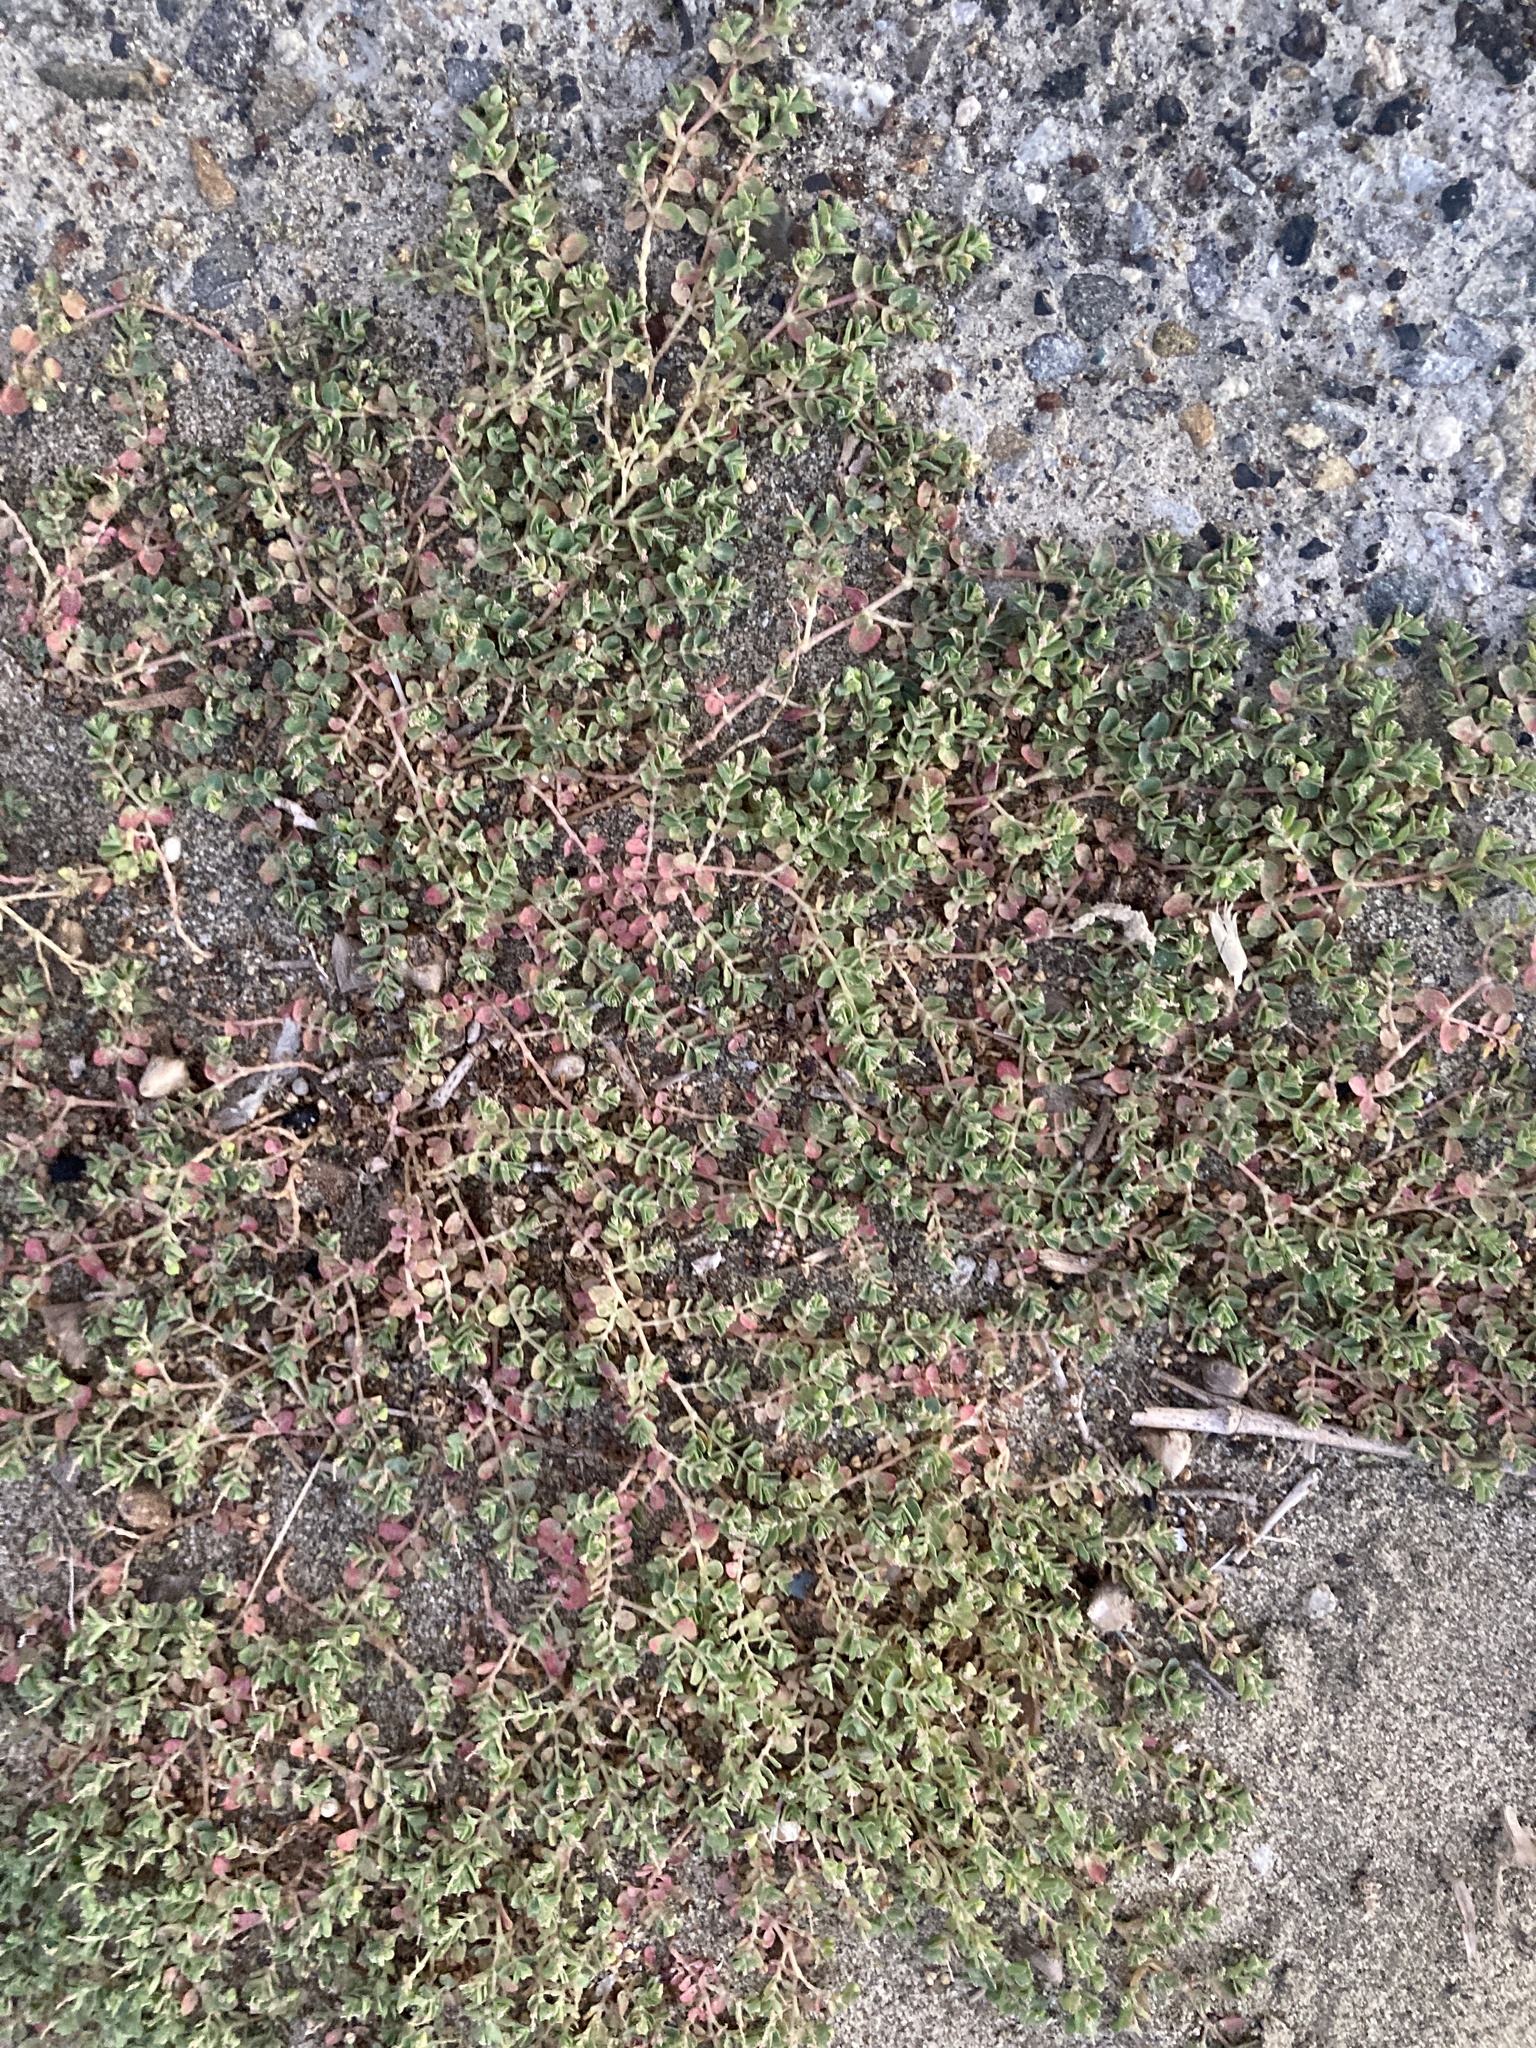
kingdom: Plantae
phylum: Tracheophyta
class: Magnoliopsida
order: Malpighiales
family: Euphorbiaceae
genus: Euphorbia
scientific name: Euphorbia serpens
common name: Matted sandmat
